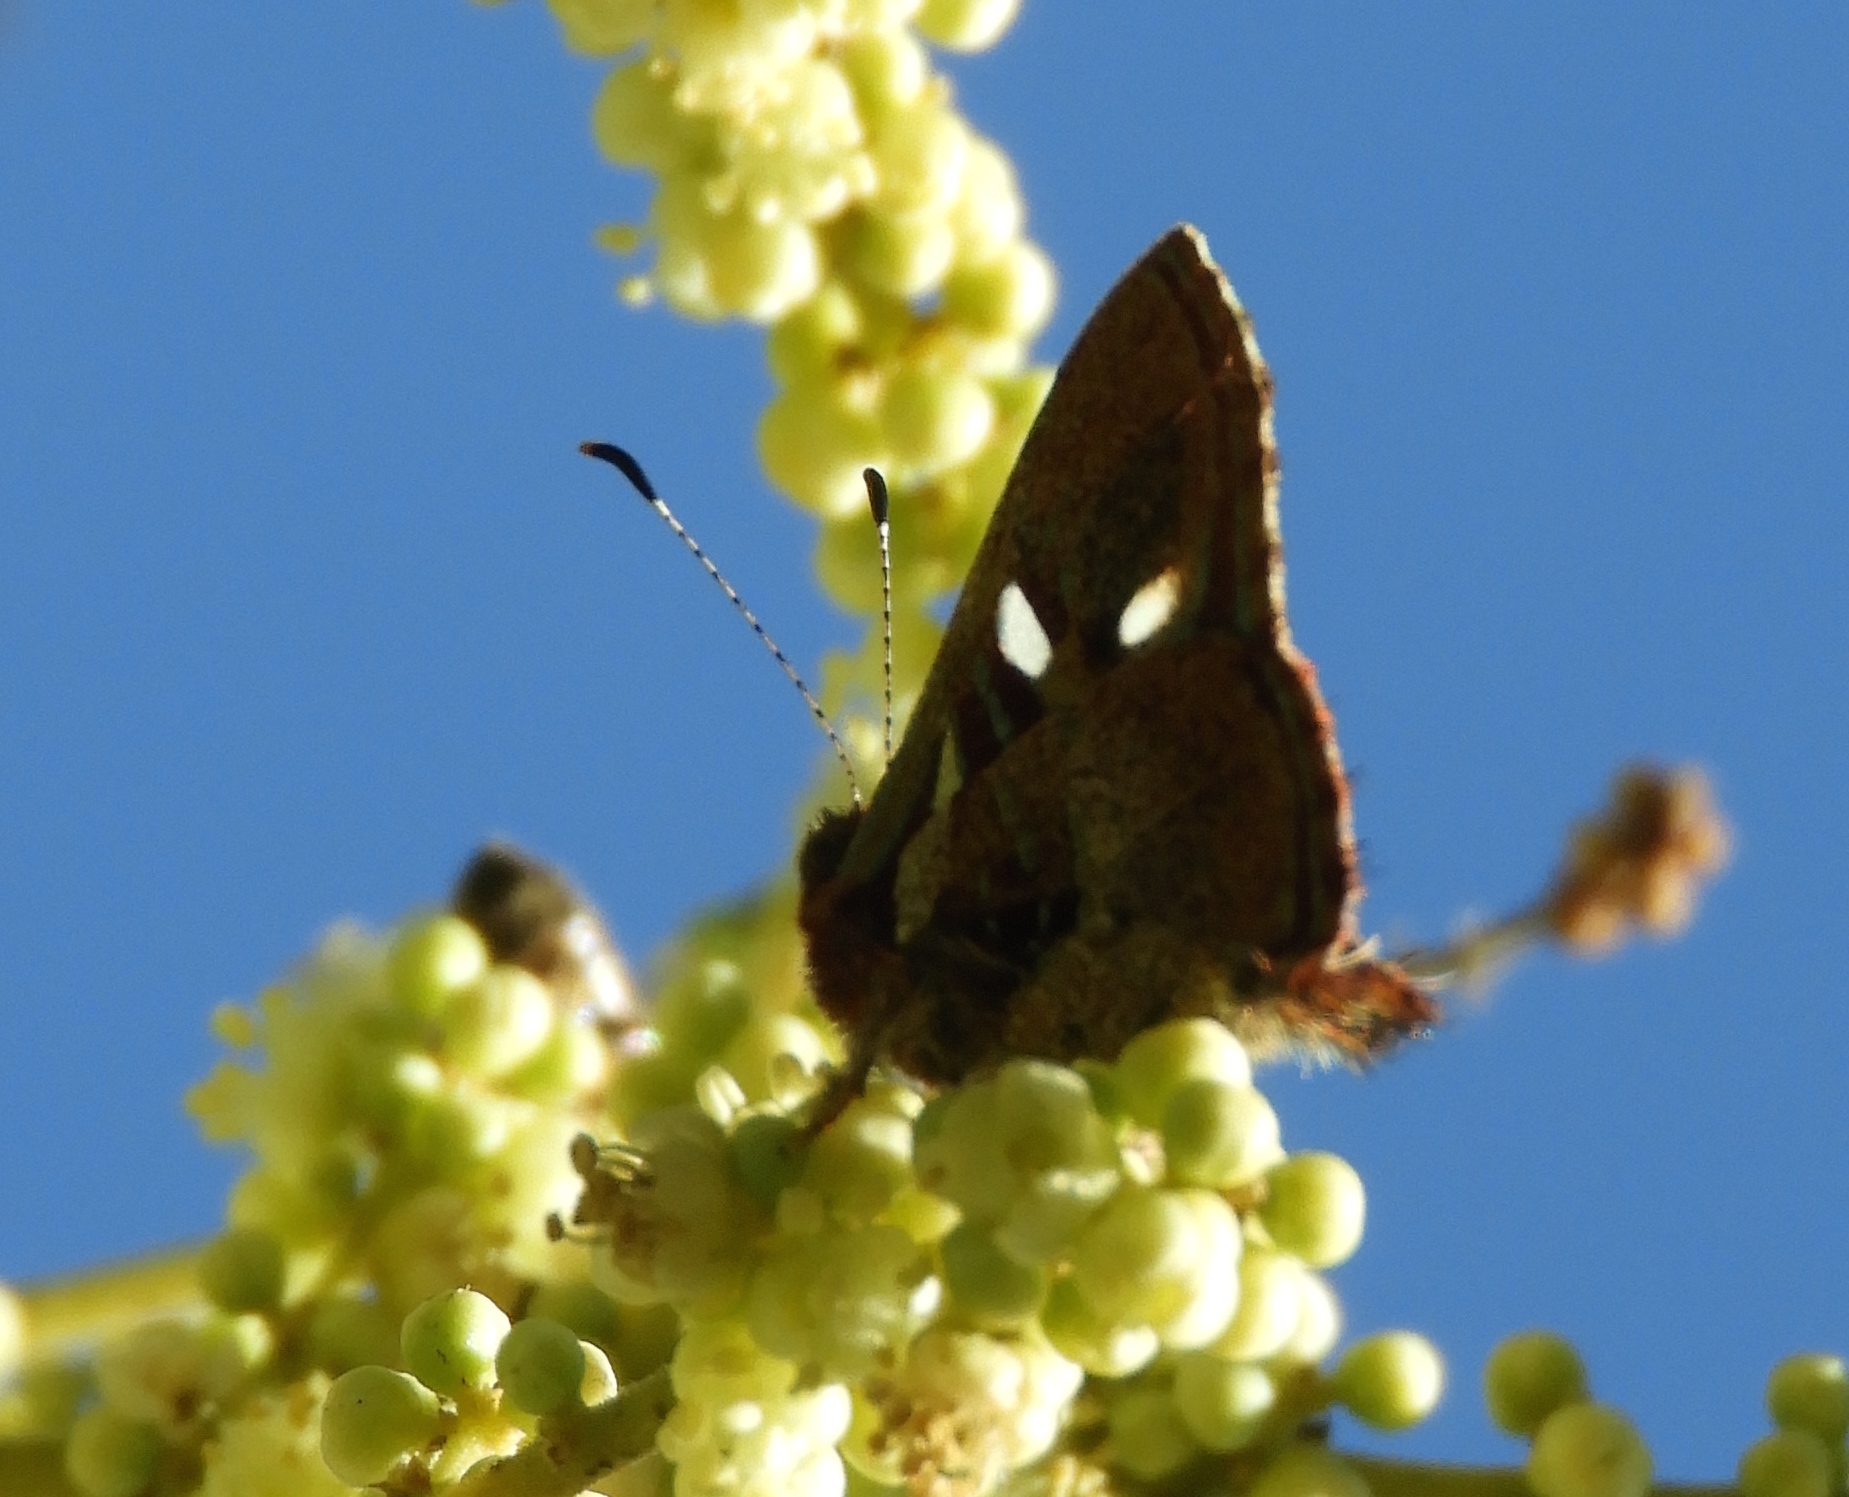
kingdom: Animalia
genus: Anteros
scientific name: Anteros carausius
